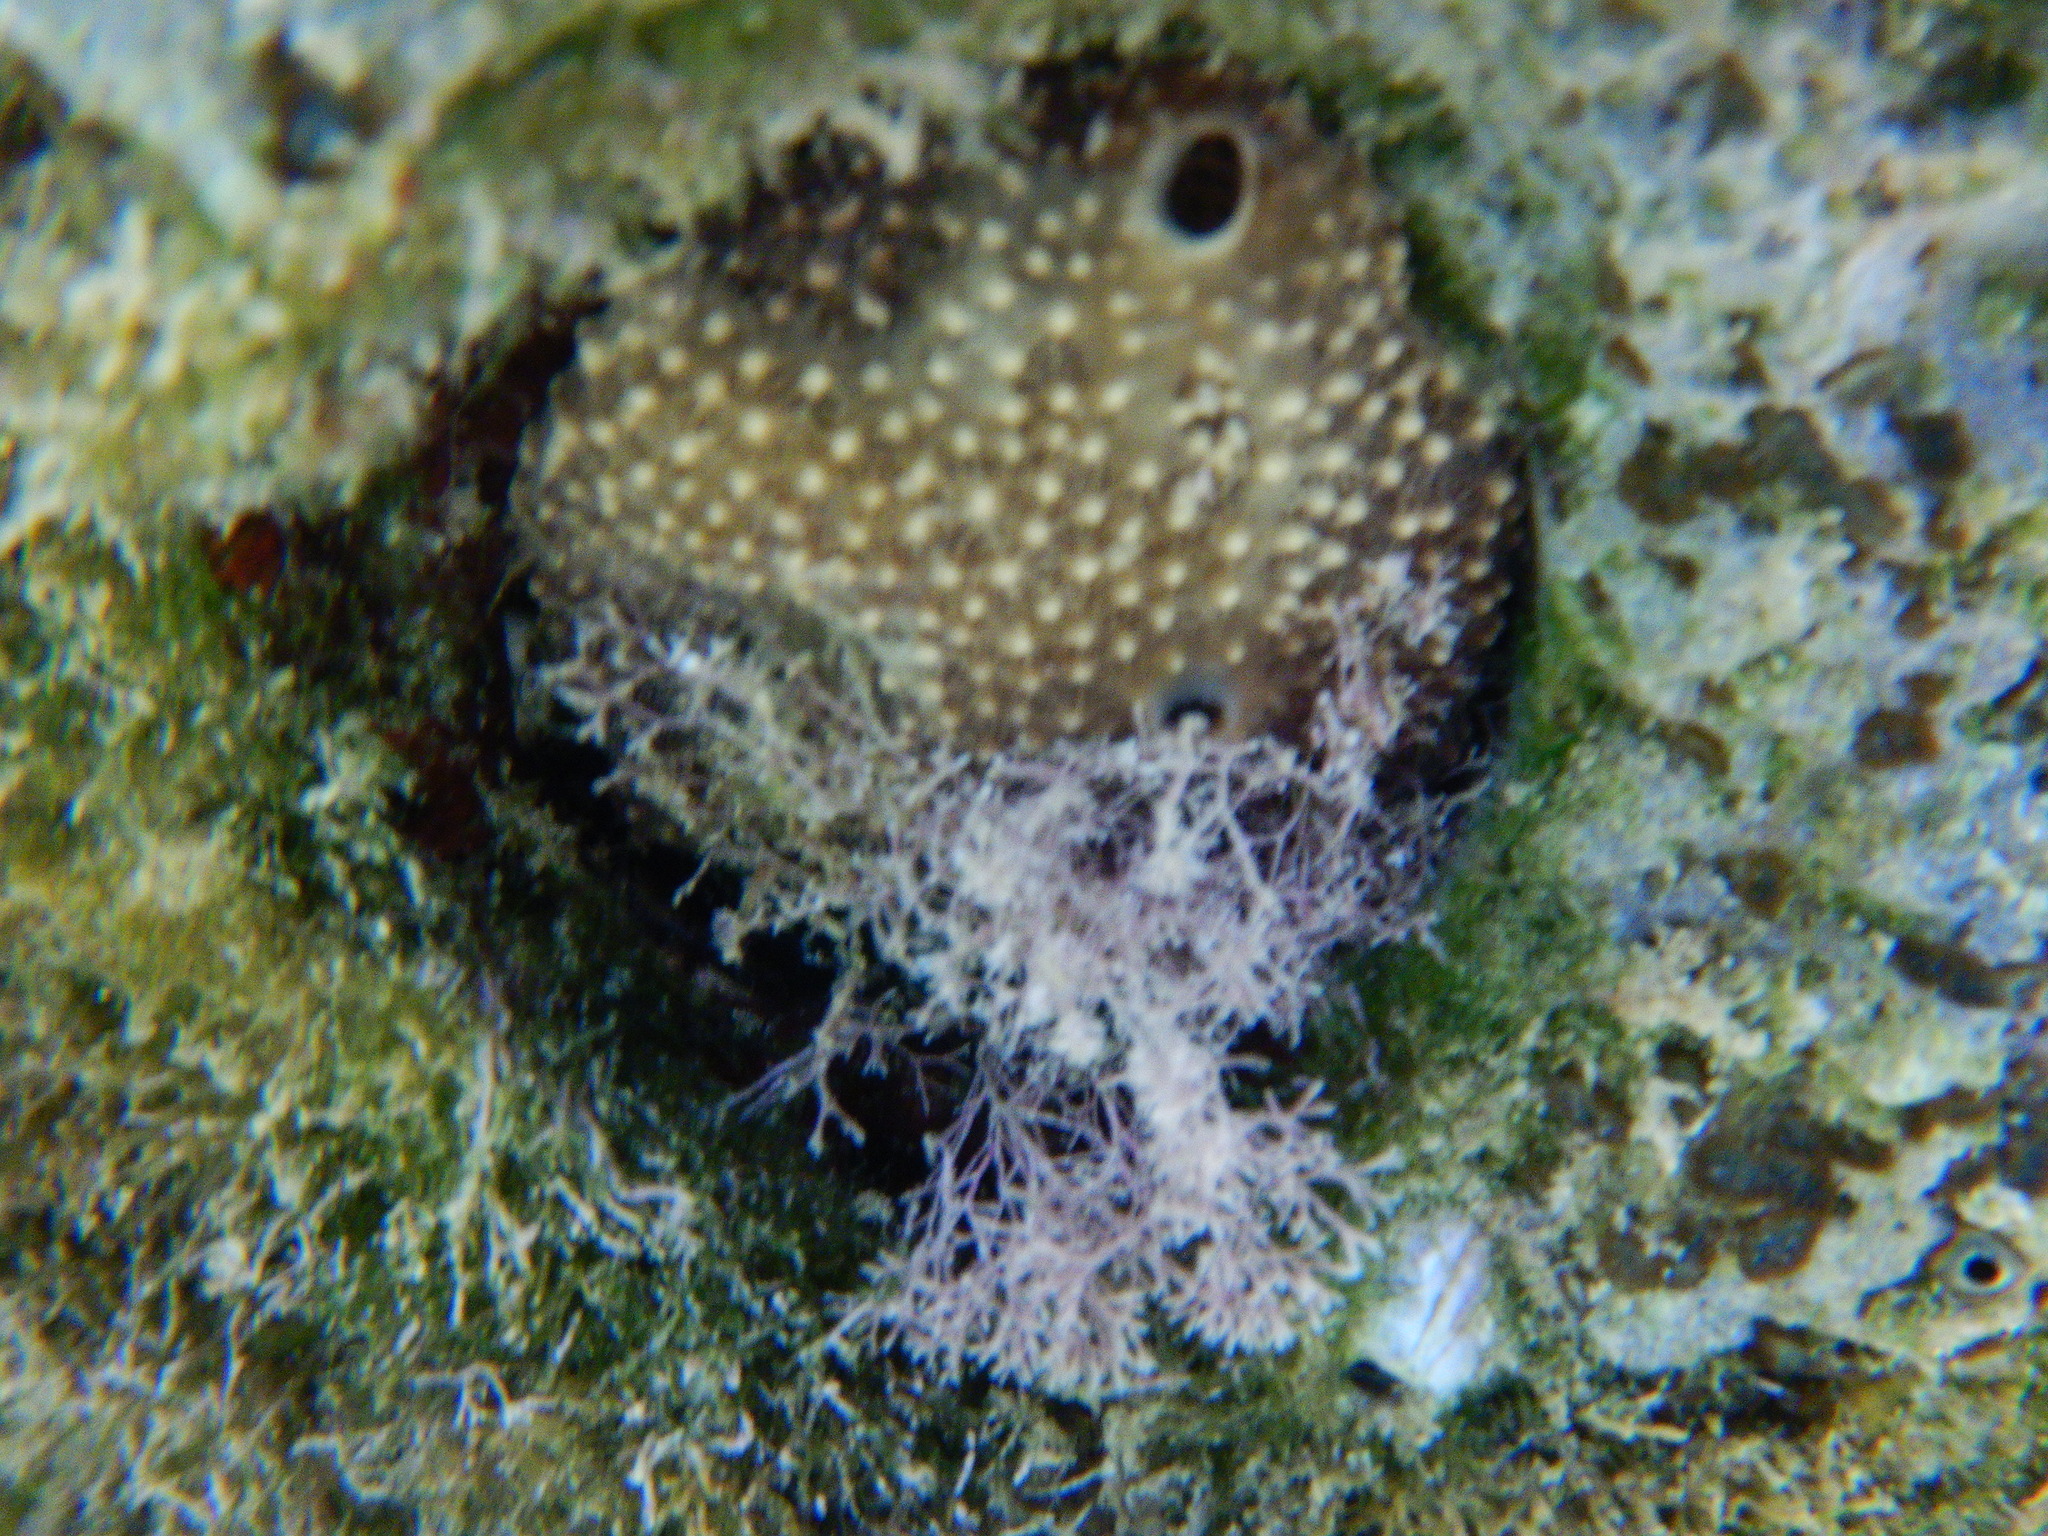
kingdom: Animalia
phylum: Porifera
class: Demospongiae
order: Dictyoceratida
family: Irciniidae
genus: Ircinia
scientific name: Ircinia variabilis
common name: Variable loggerhead sponge
